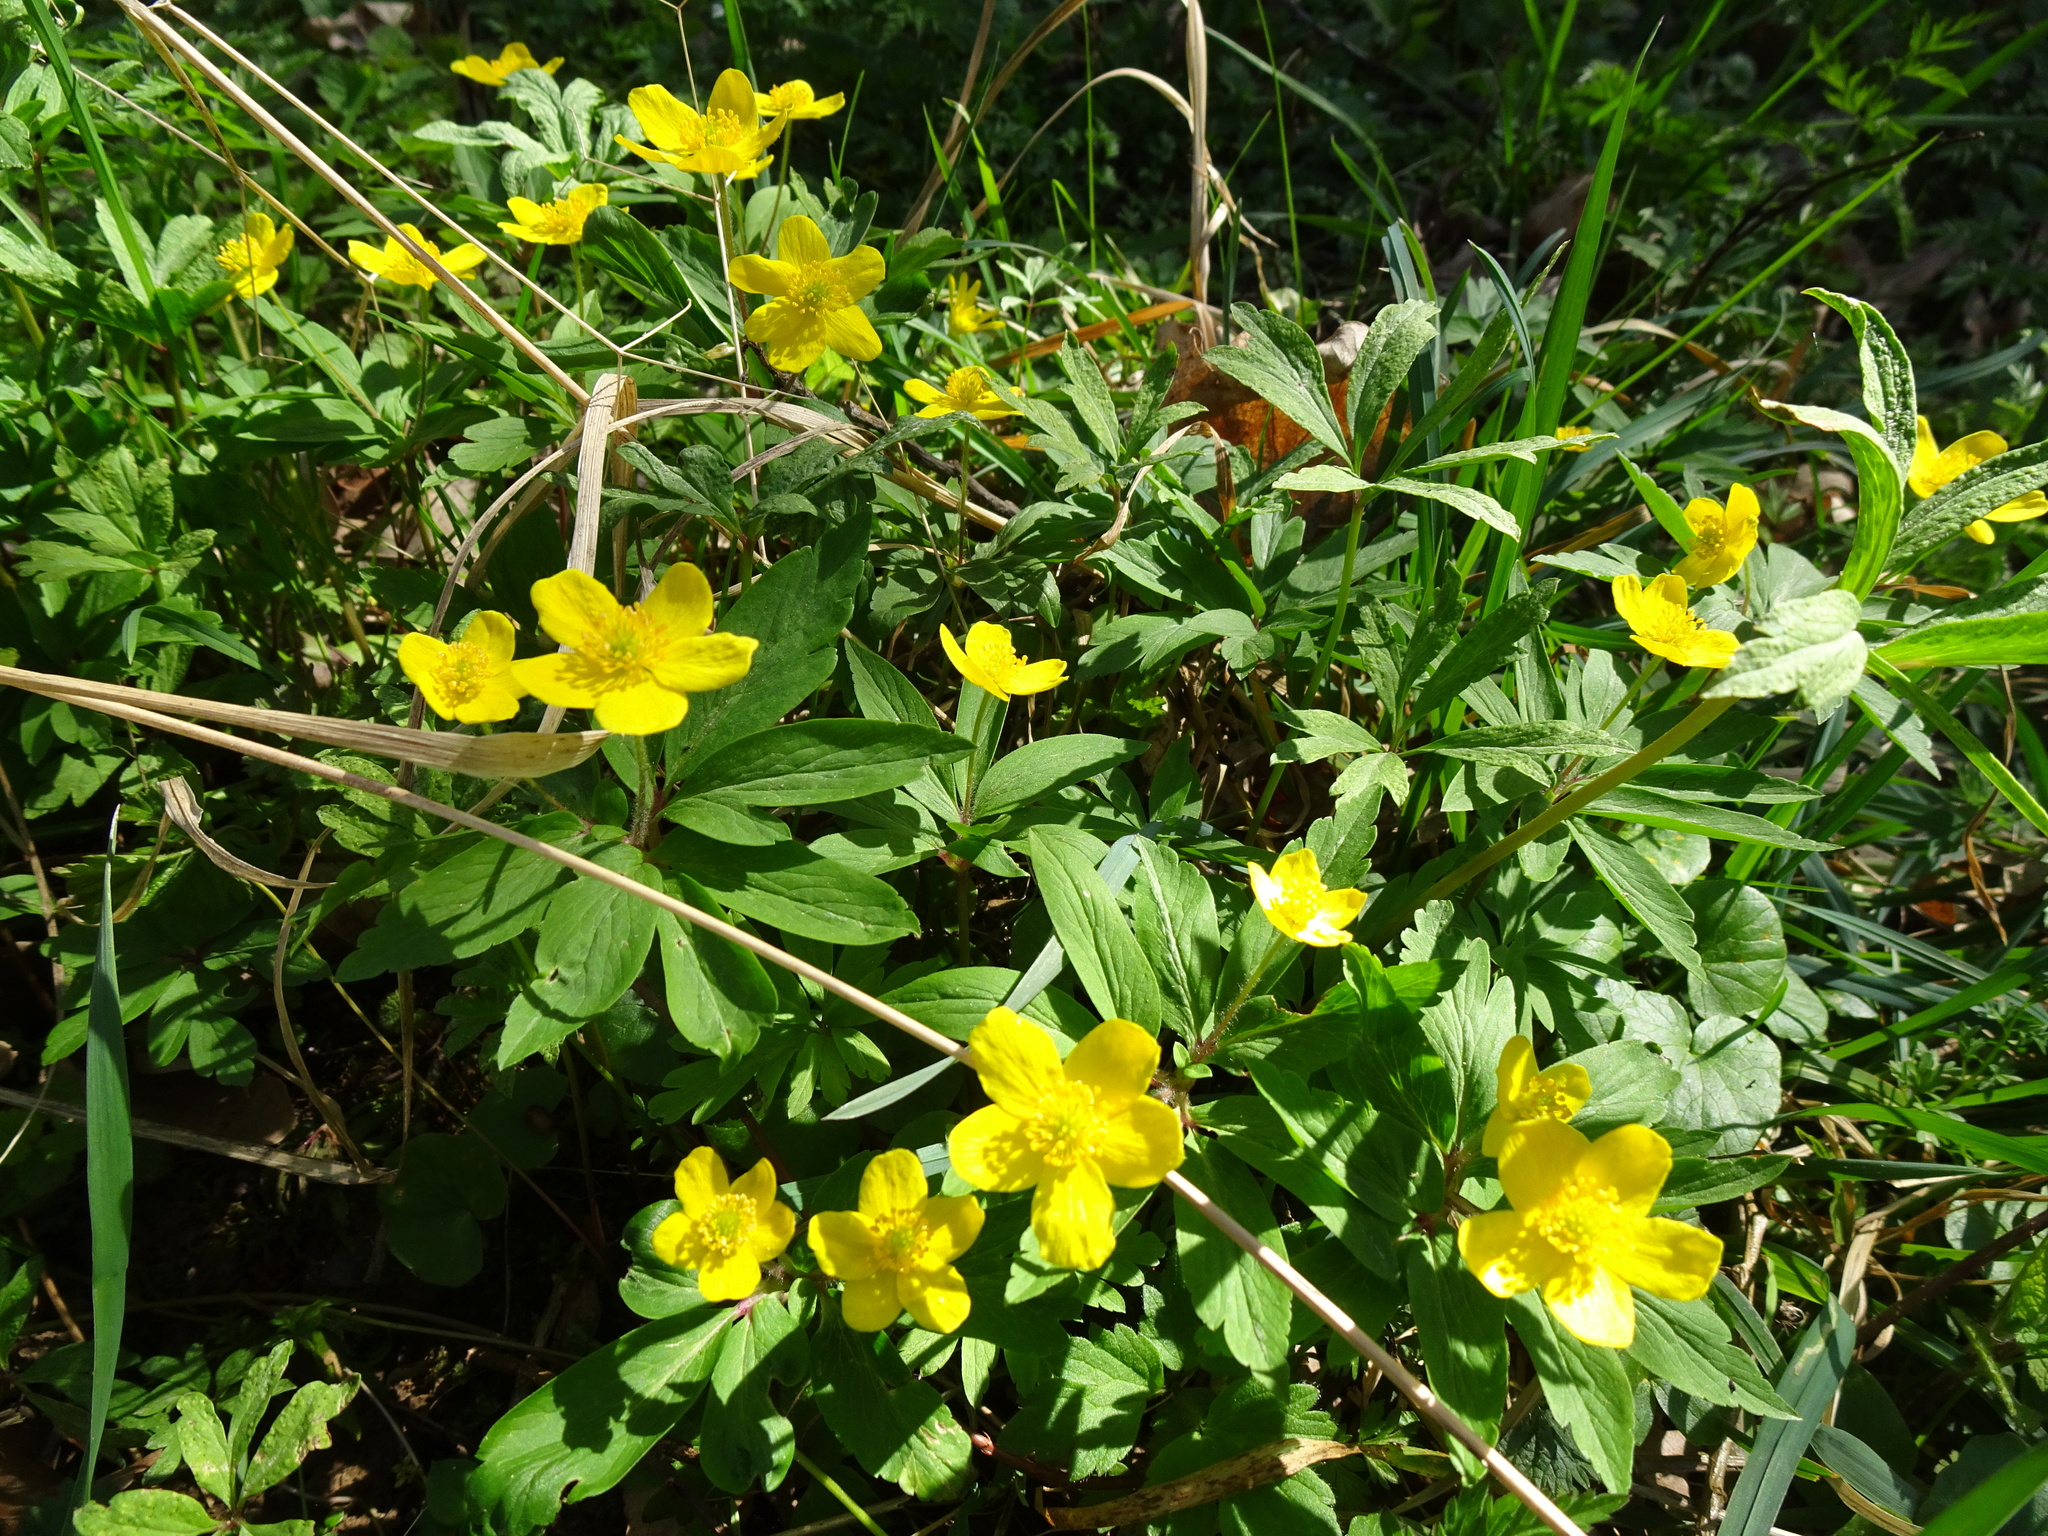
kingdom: Plantae
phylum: Tracheophyta
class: Magnoliopsida
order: Ranunculales
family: Ranunculaceae
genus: Anemone
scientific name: Anemone ranunculoides
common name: Yellow anemone
